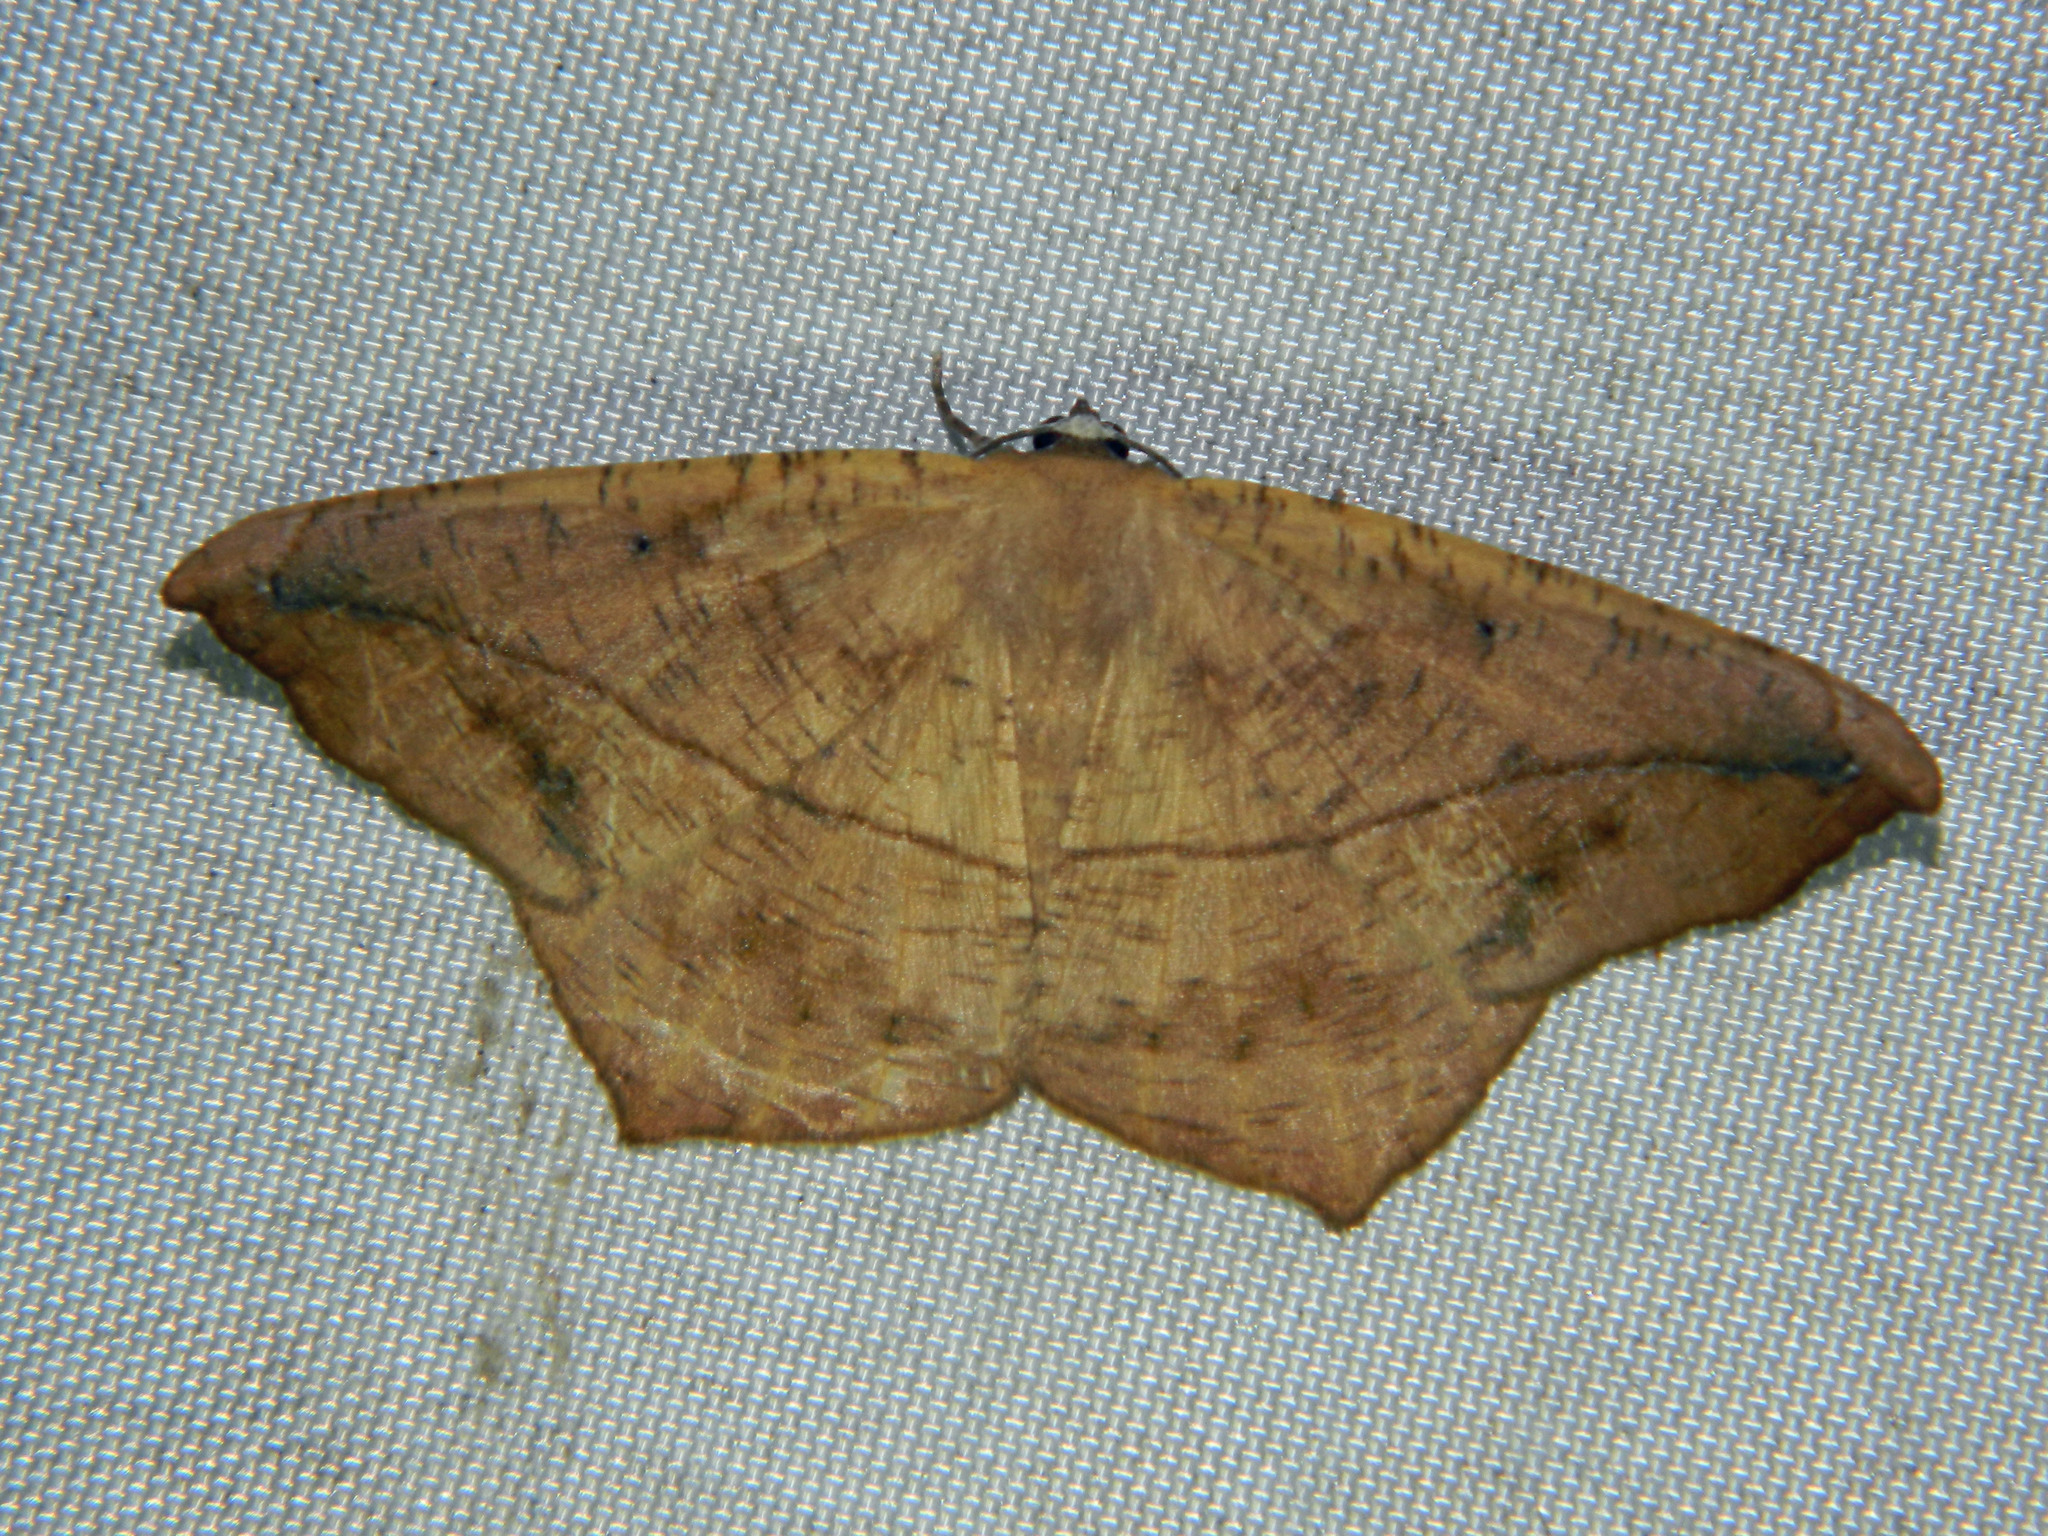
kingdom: Animalia
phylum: Arthropoda
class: Insecta
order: Lepidoptera
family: Geometridae
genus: Prochoerodes
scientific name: Prochoerodes lineola
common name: Large maple spanworm
